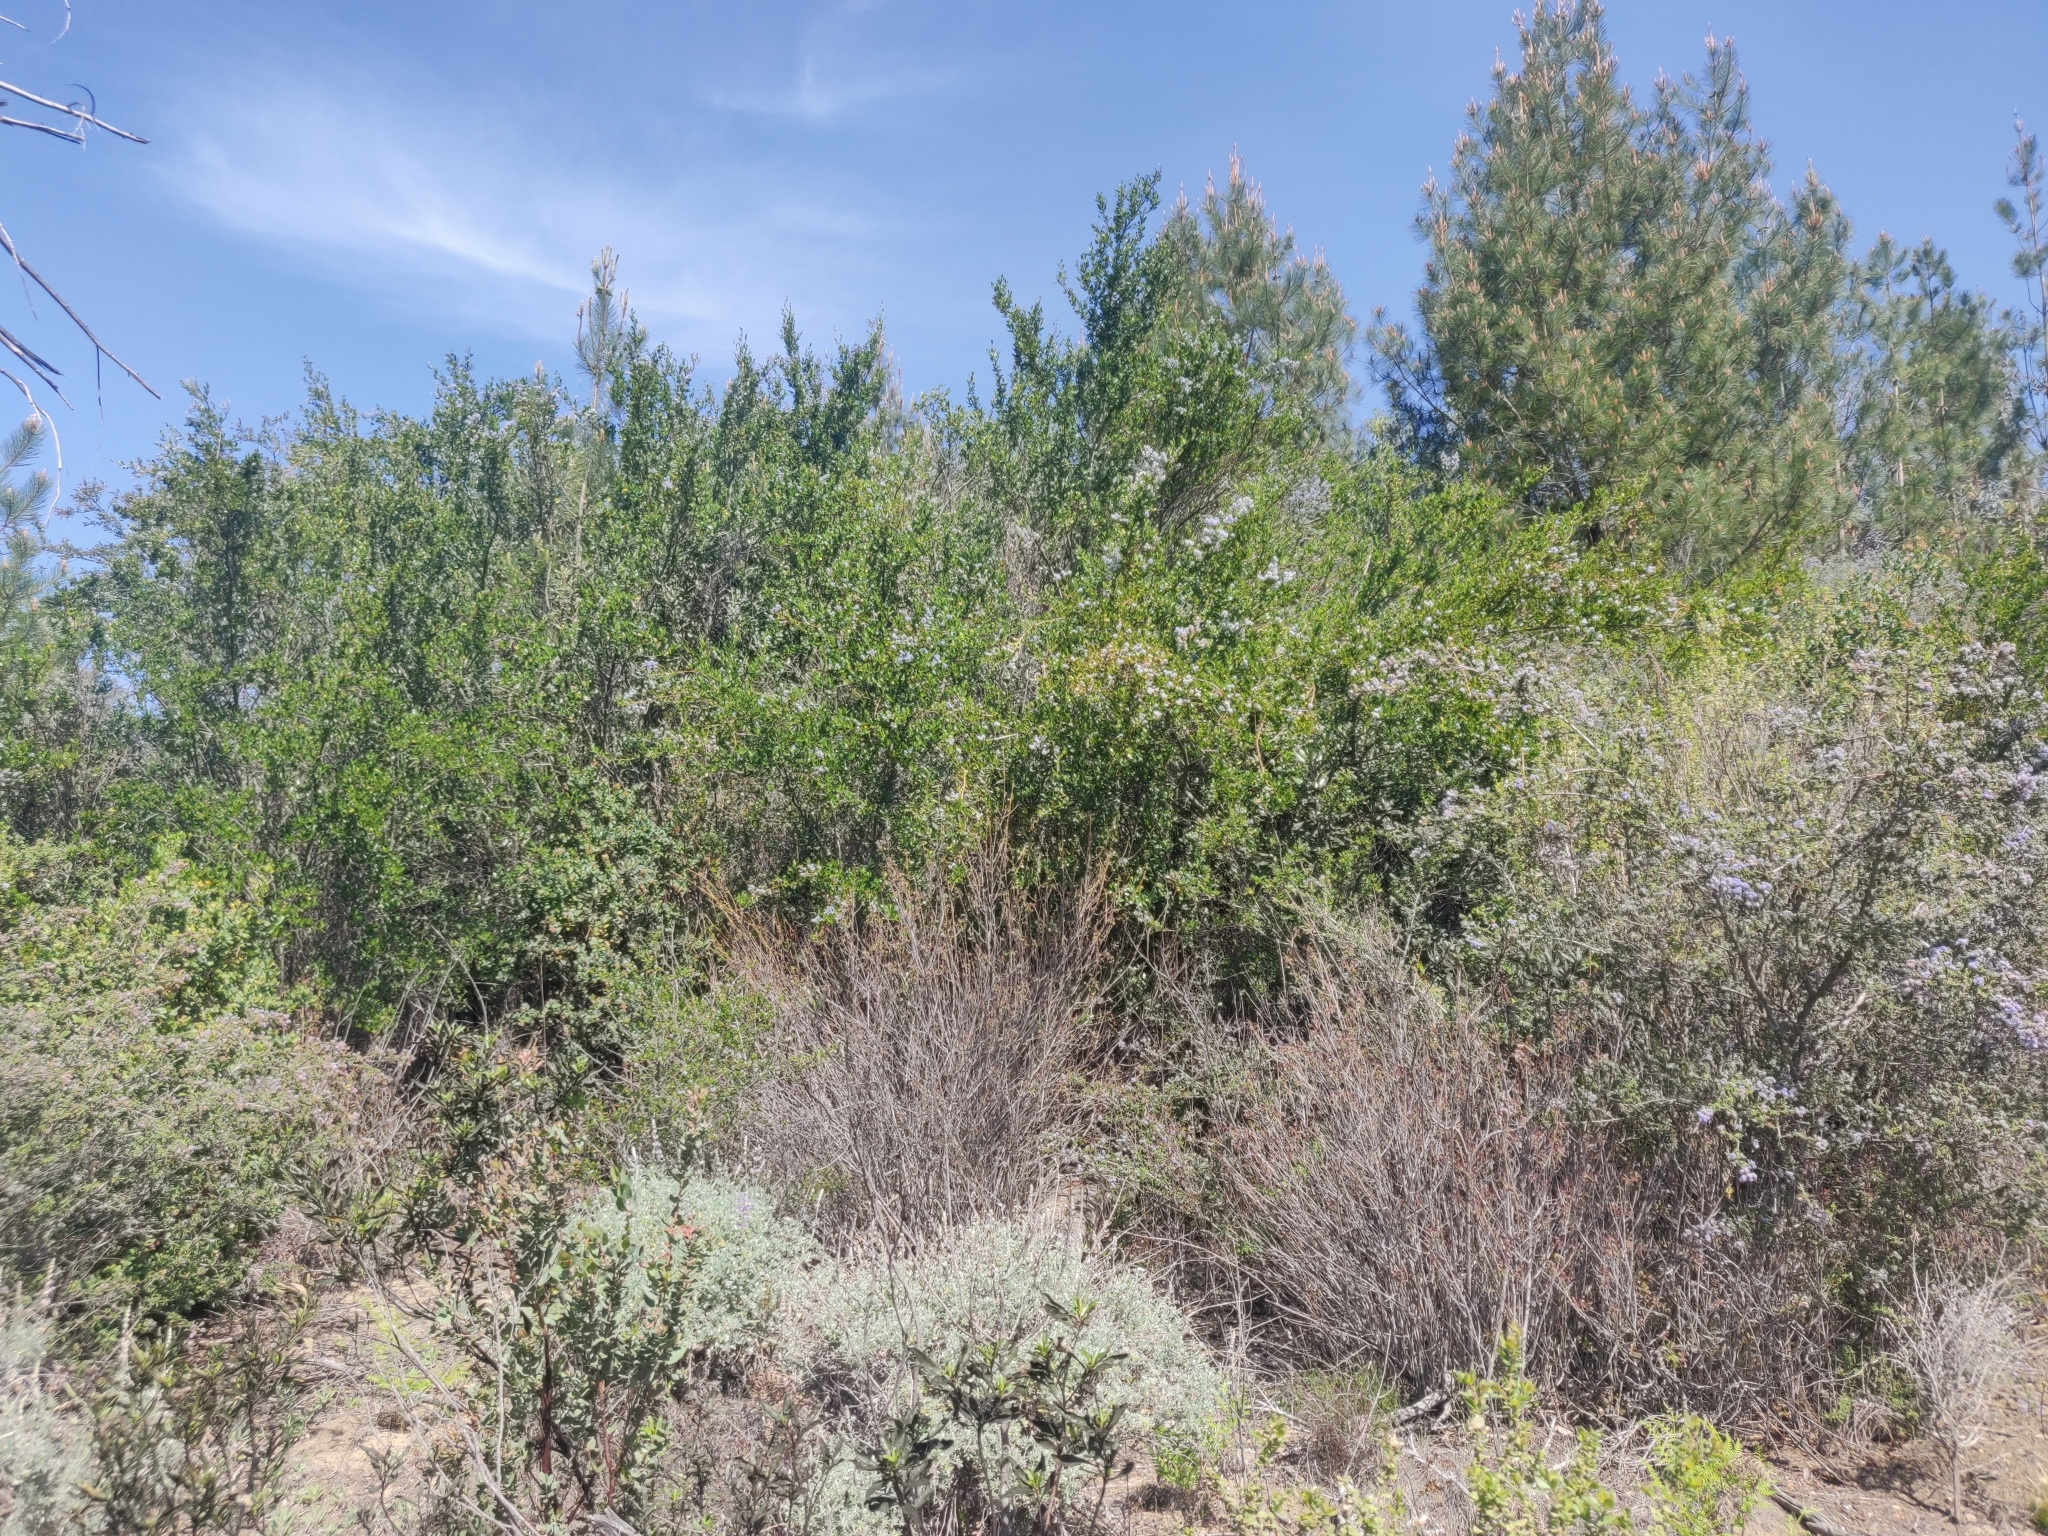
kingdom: Plantae
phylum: Tracheophyta
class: Magnoliopsida
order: Rosales
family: Rhamnaceae
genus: Ceanothus
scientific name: Ceanothus thyrsiflorus
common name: California-lilac
